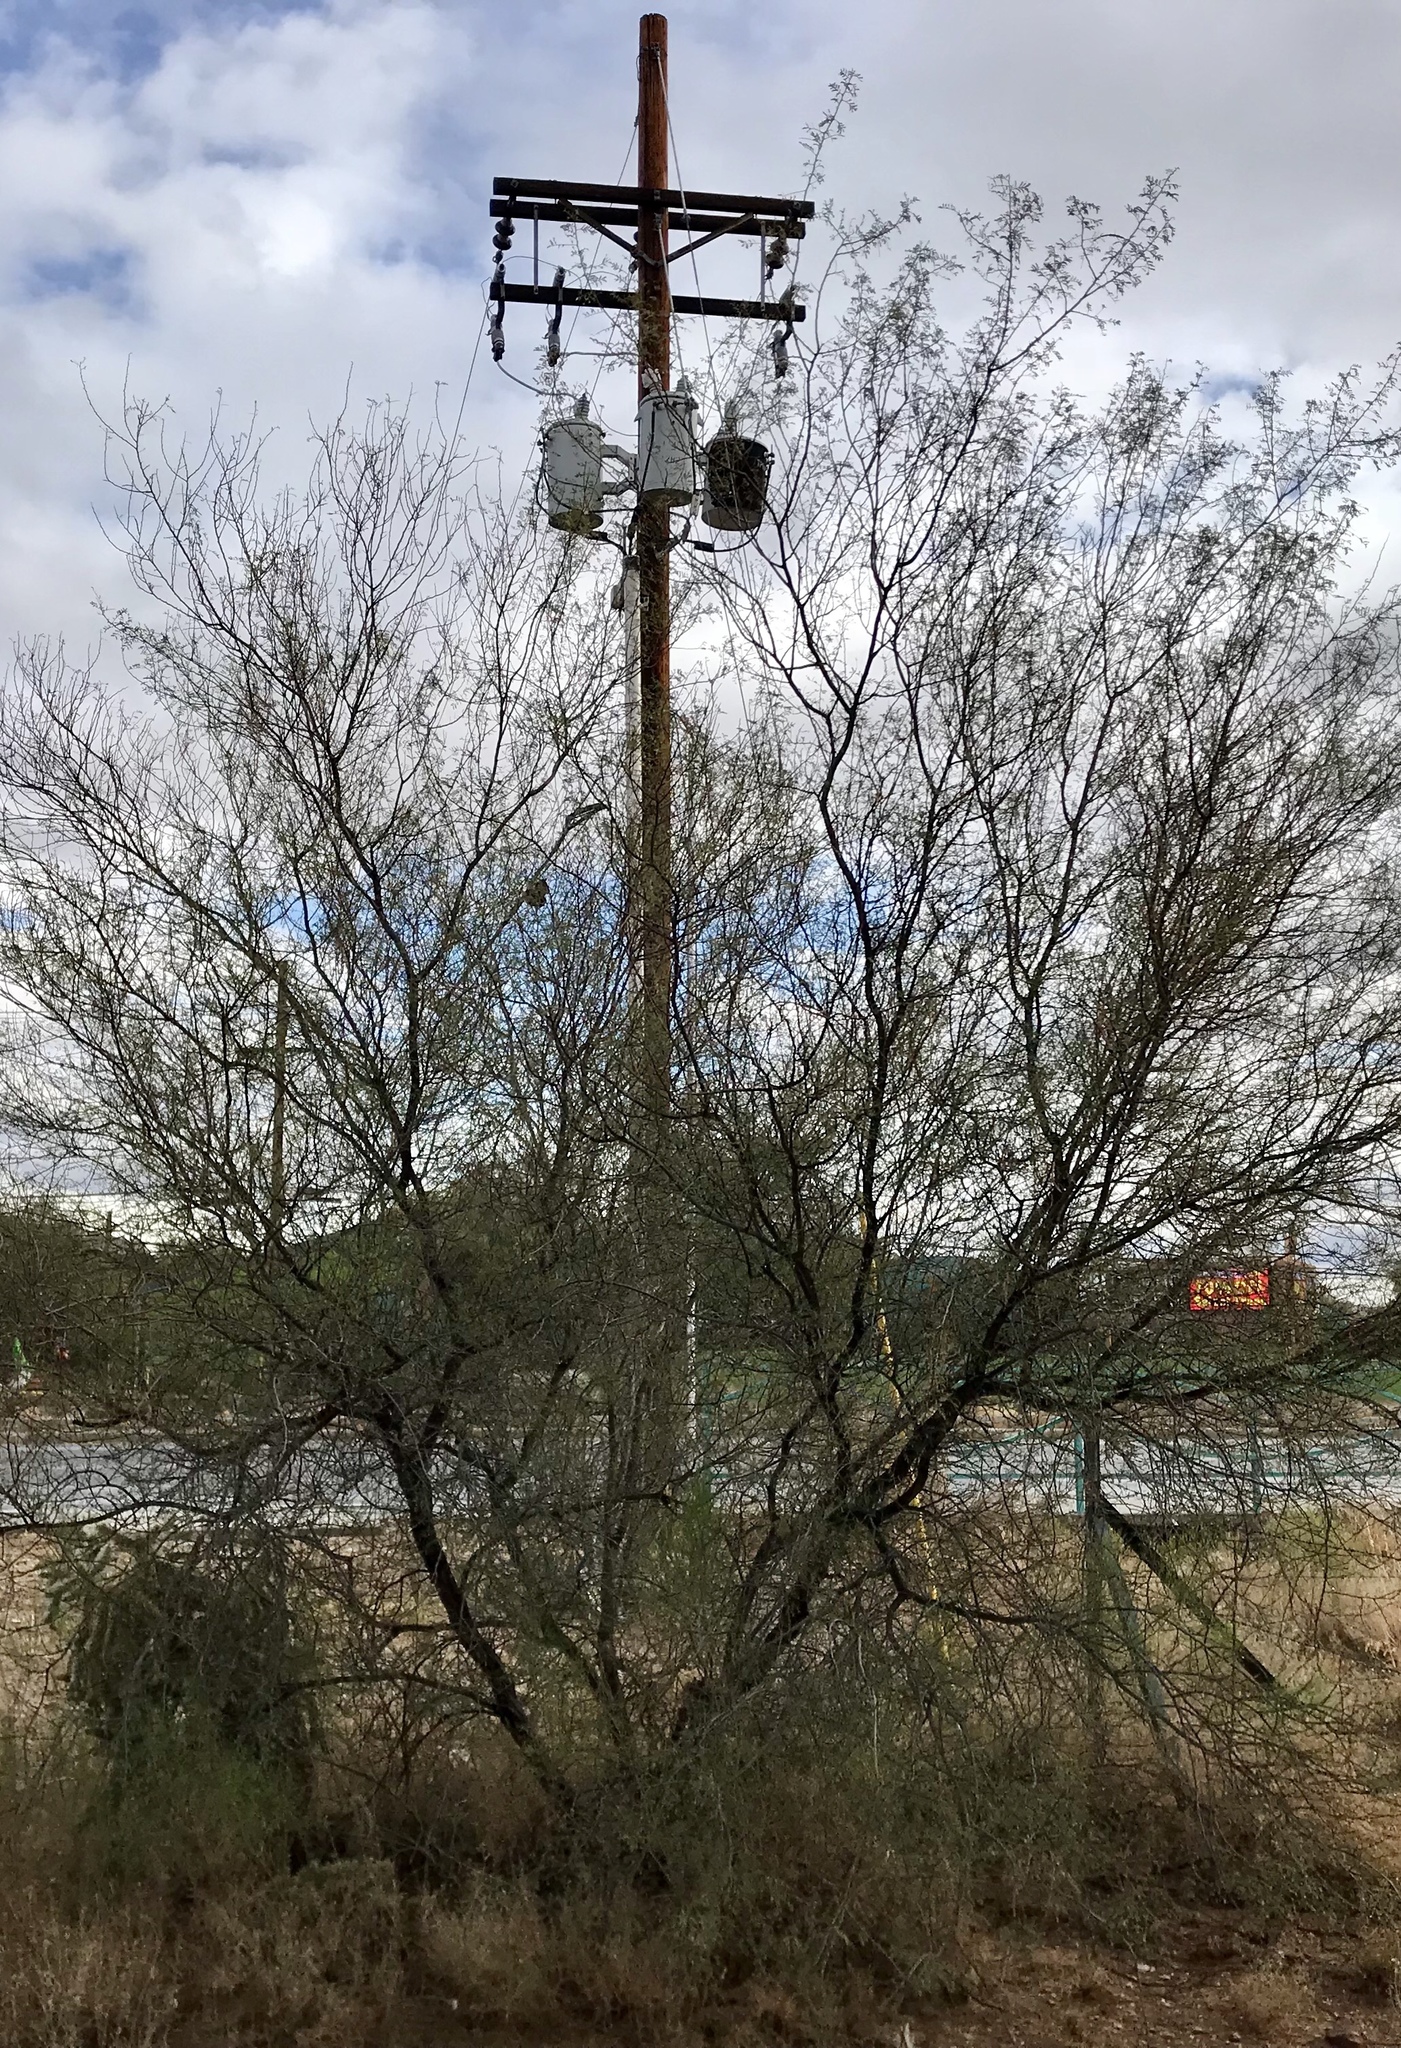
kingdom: Plantae
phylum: Tracheophyta
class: Magnoliopsida
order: Fabales
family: Fabaceae
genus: Parkinsonia
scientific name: Parkinsonia microphylla
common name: Yellow paloverde
